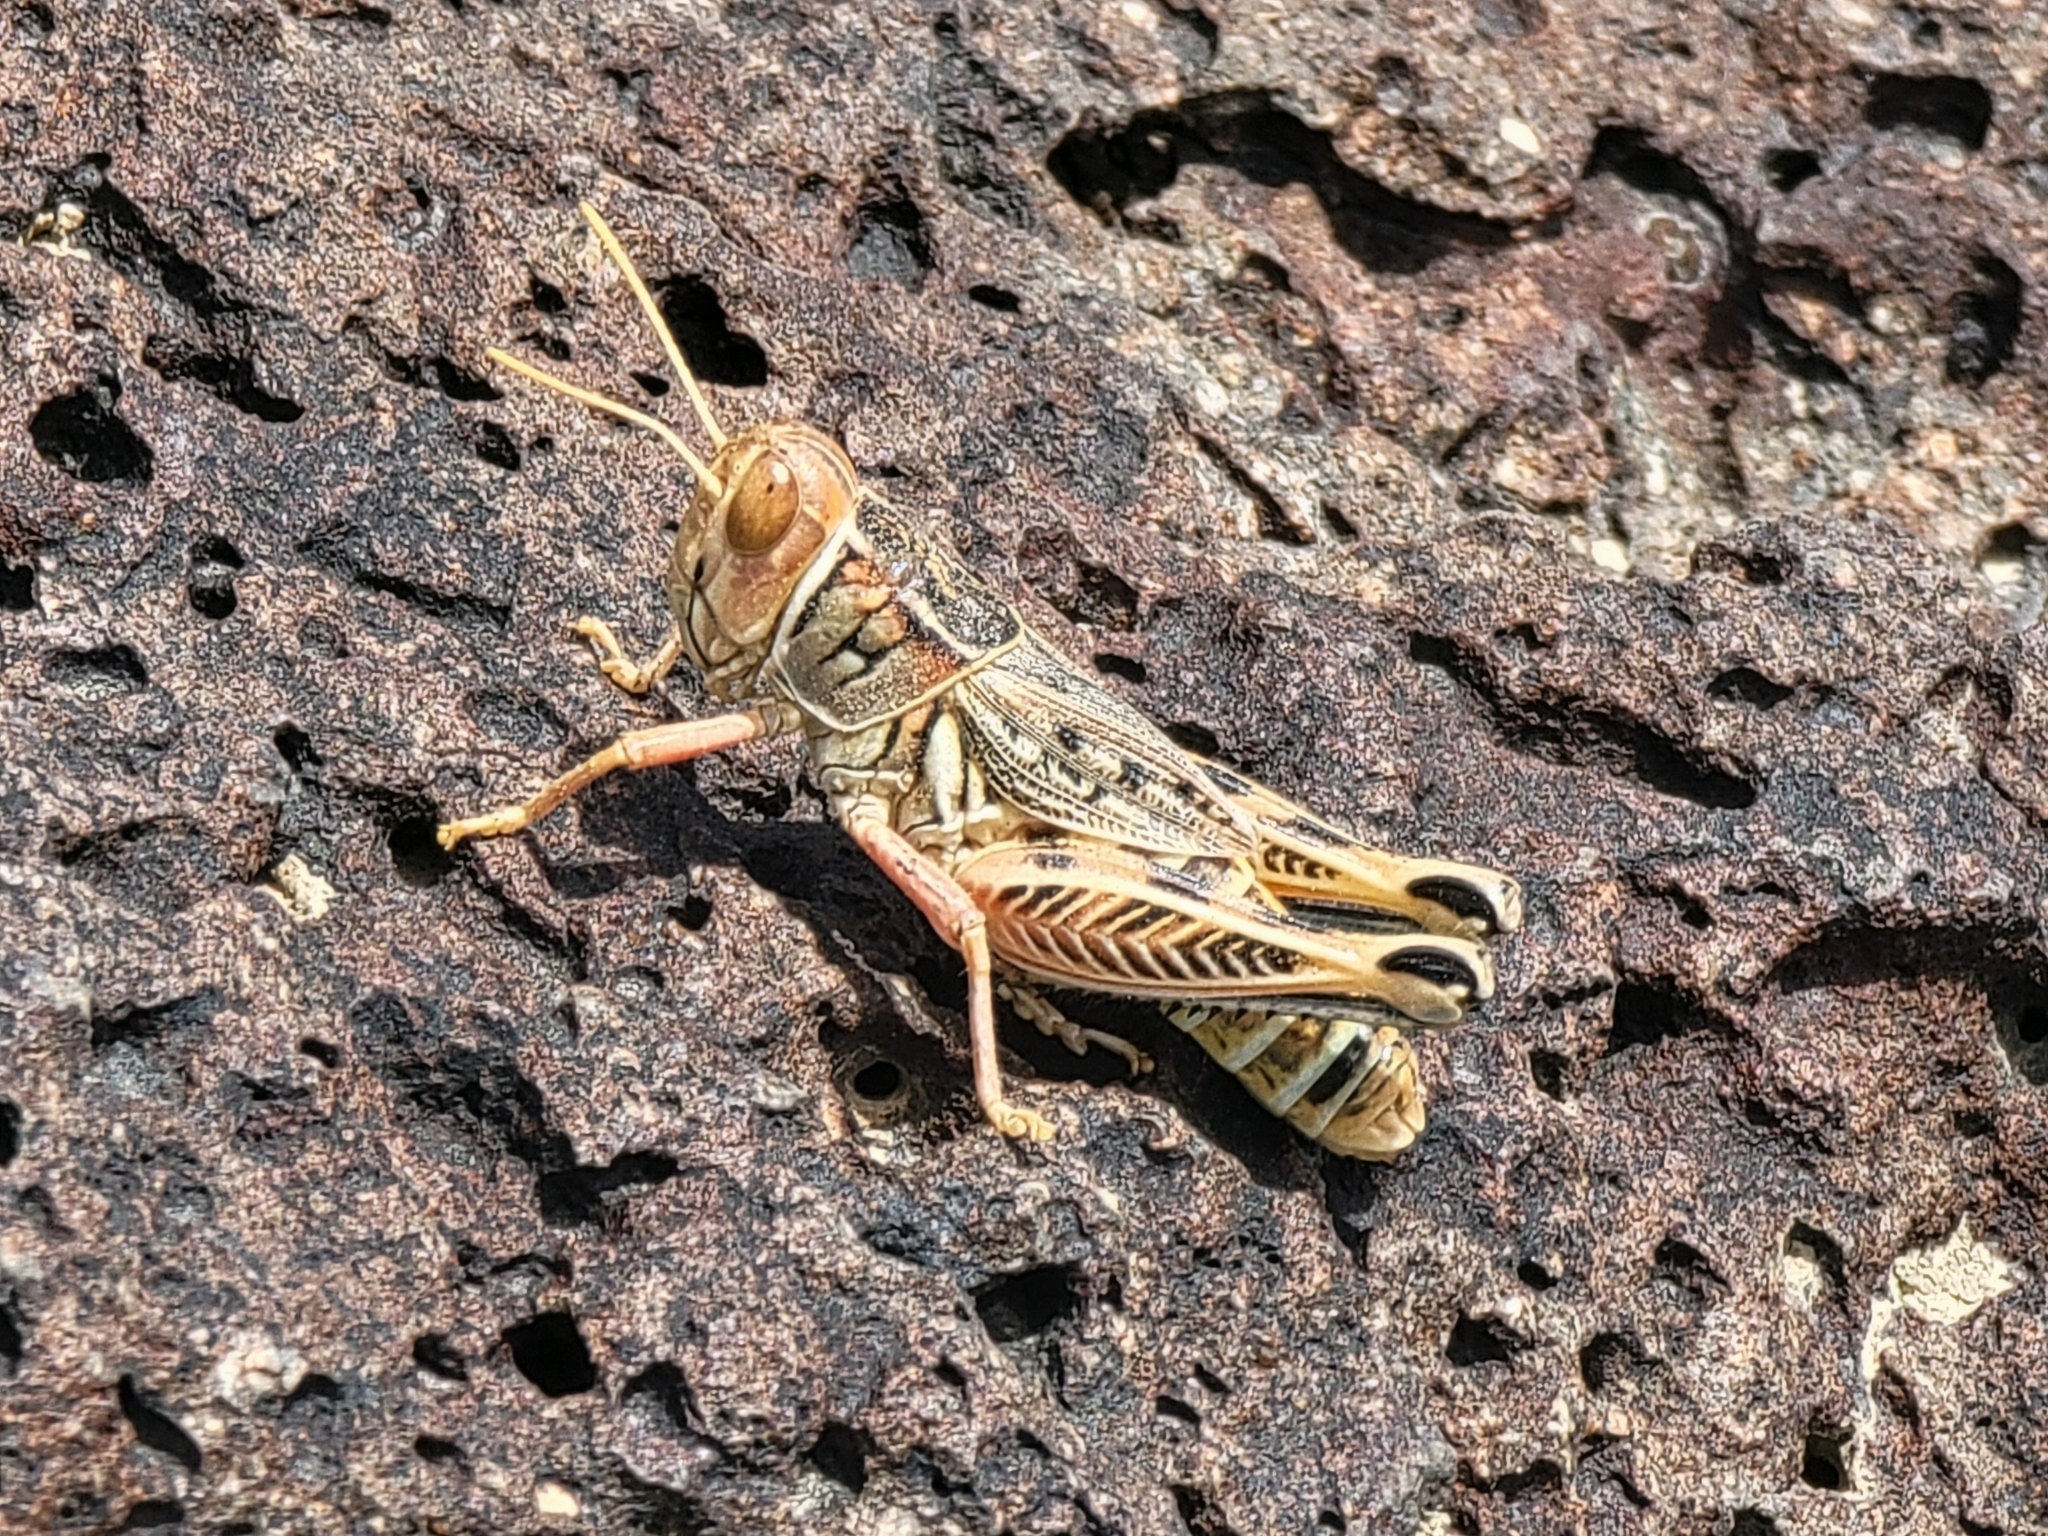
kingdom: Animalia
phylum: Arthropoda
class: Insecta
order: Orthoptera
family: Acrididae
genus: Oedaleonotus
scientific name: Oedaleonotus enigma
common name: Valley grasshopper
